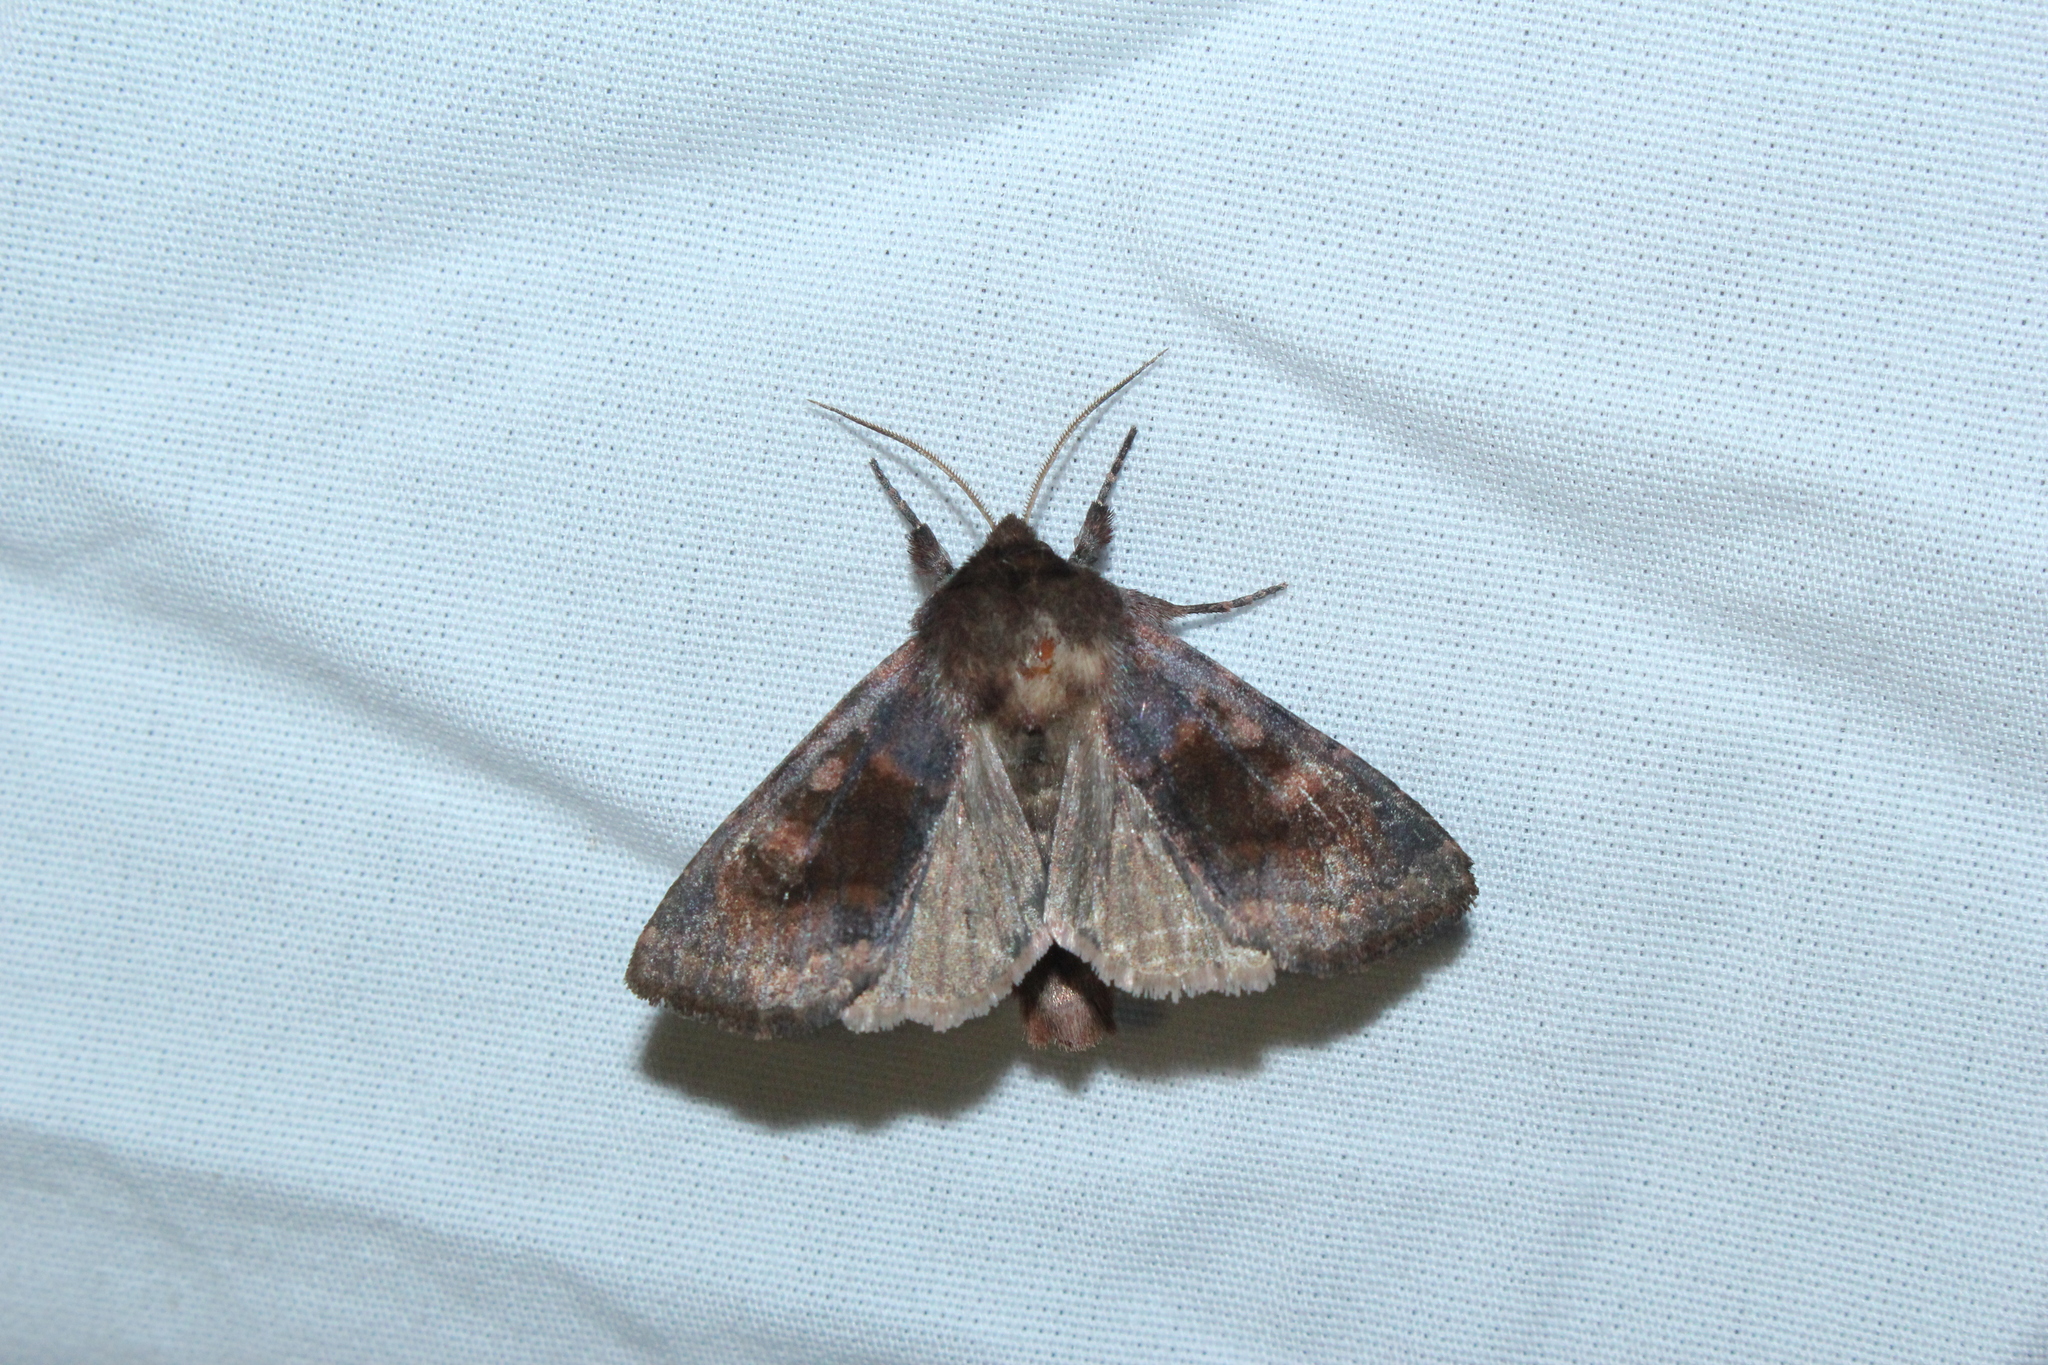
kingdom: Animalia
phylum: Arthropoda
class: Insecta
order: Lepidoptera
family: Noctuidae
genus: Nephelodes
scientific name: Nephelodes minians
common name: Bronzed cutworm
